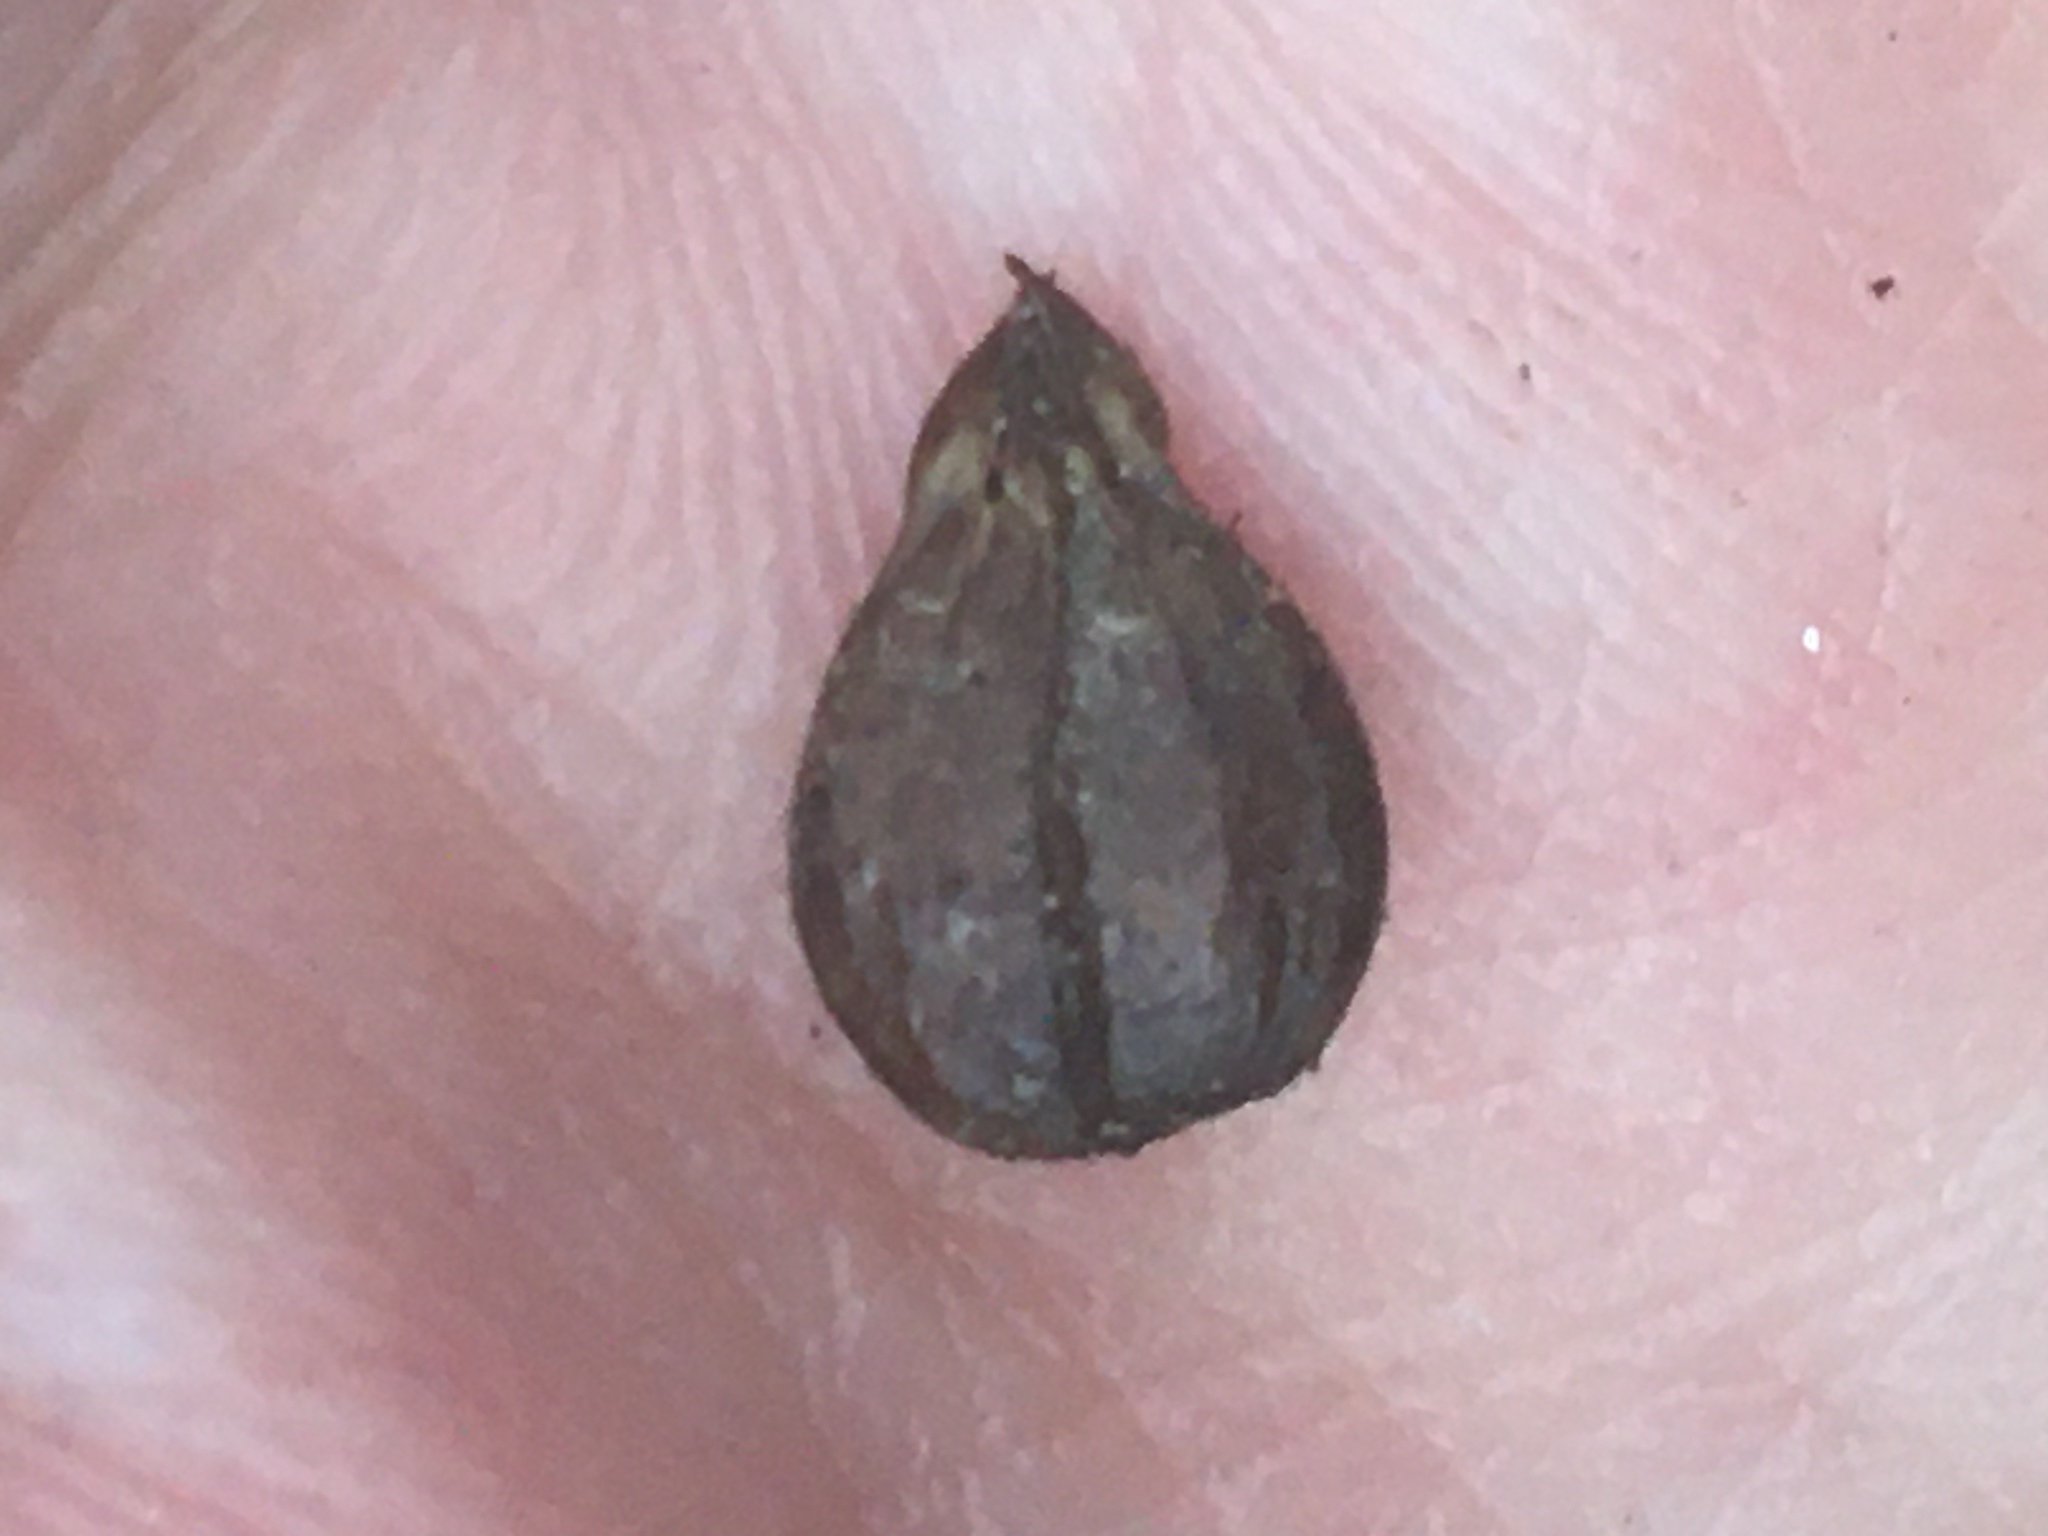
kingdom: Plantae
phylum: Tracheophyta
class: Magnoliopsida
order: Fagales
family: Betulaceae
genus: Carpinus
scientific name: Carpinus betulus
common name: Hornbeam
